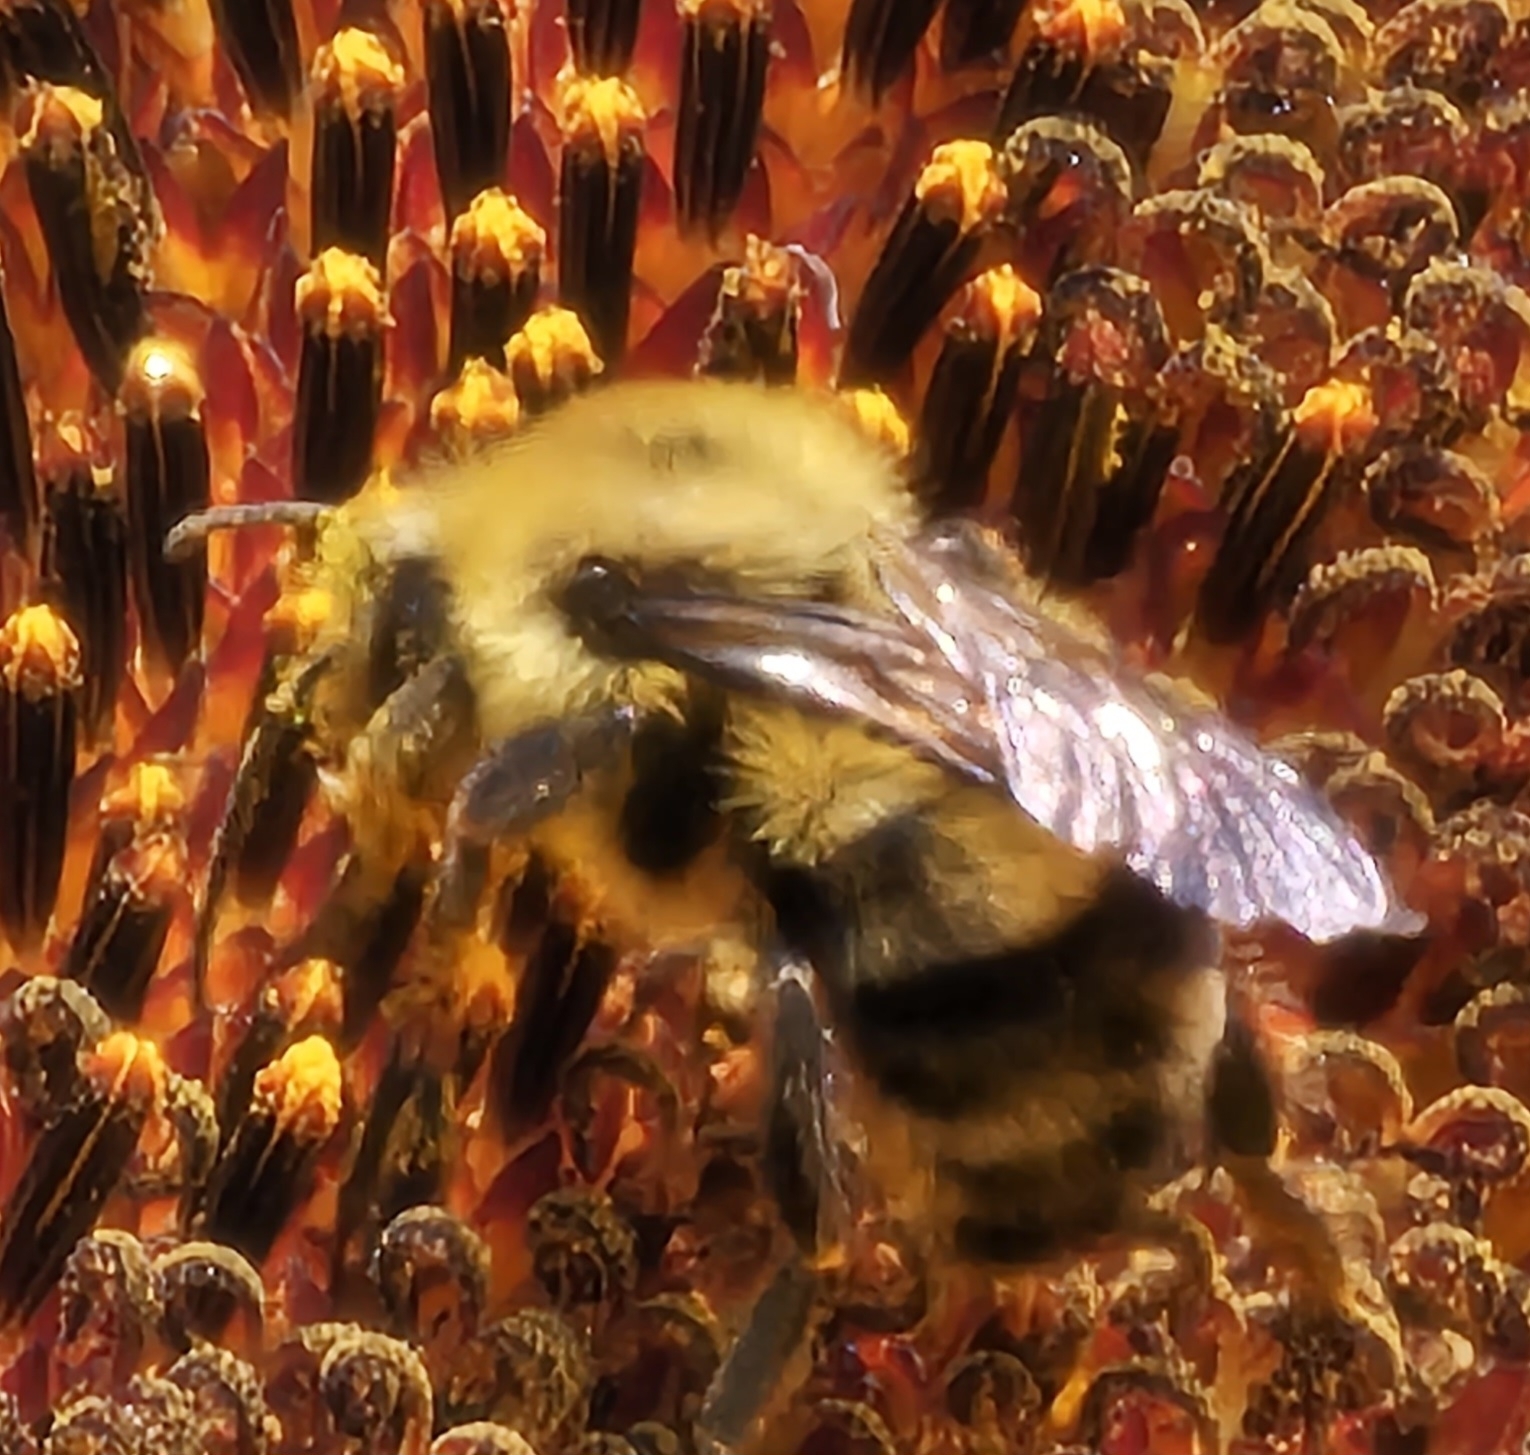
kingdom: Animalia
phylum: Arthropoda
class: Insecta
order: Hymenoptera
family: Apidae
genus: Bombus
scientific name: Bombus bimaculatus
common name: Two-spotted bumble bee
